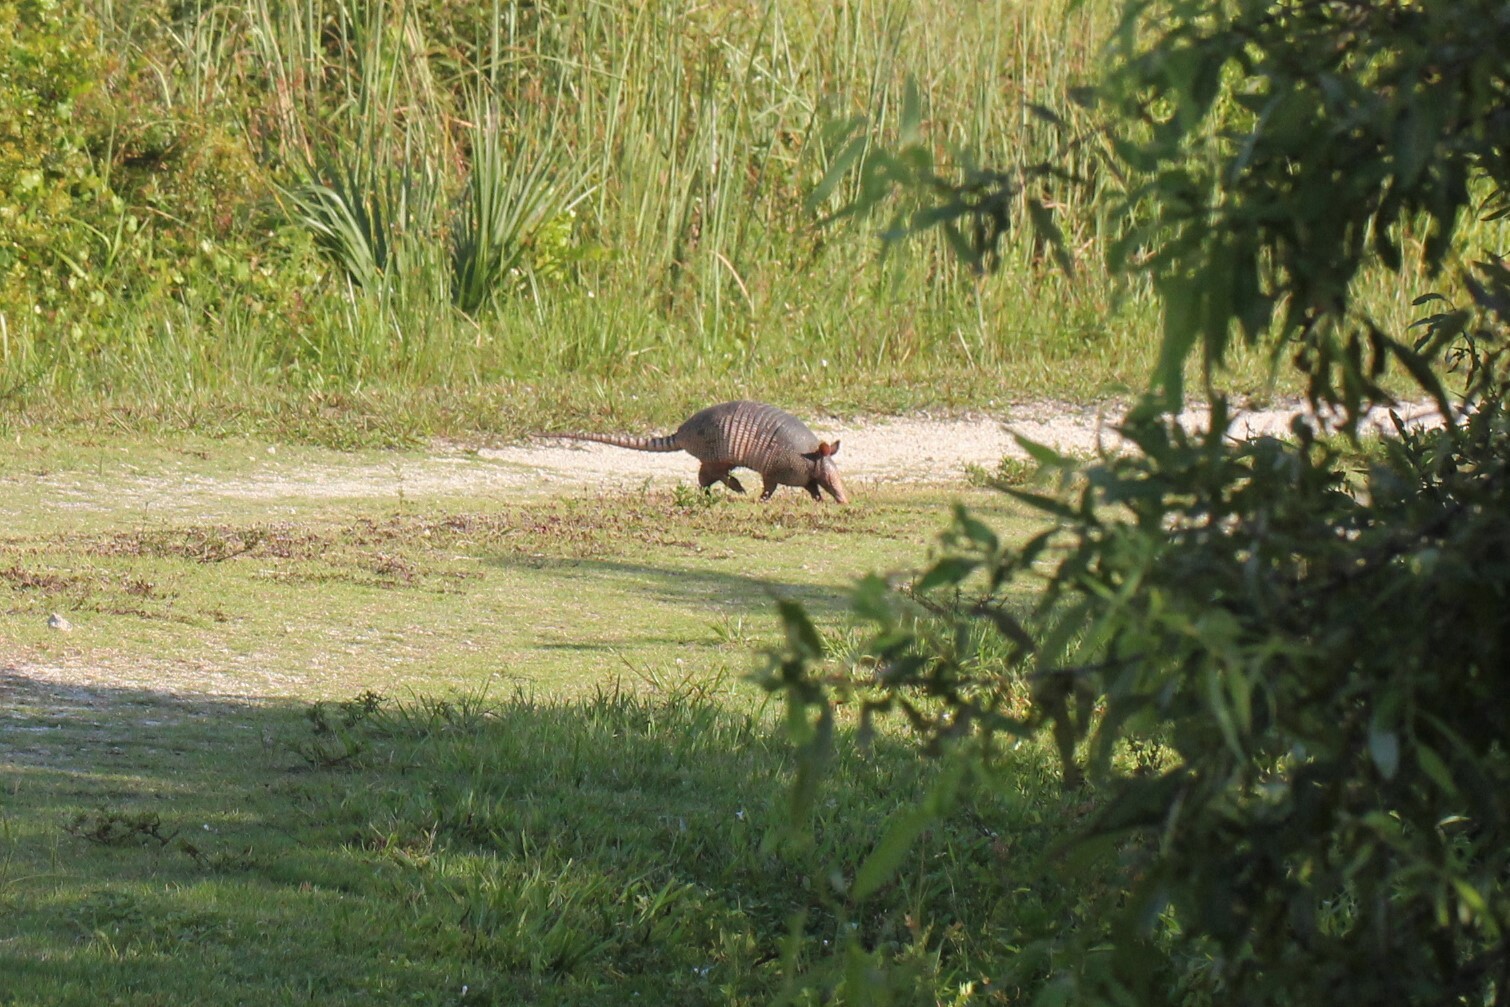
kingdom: Animalia
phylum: Chordata
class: Mammalia
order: Cingulata
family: Dasypodidae
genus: Dasypus
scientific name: Dasypus novemcinctus
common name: Nine-banded armadillo
